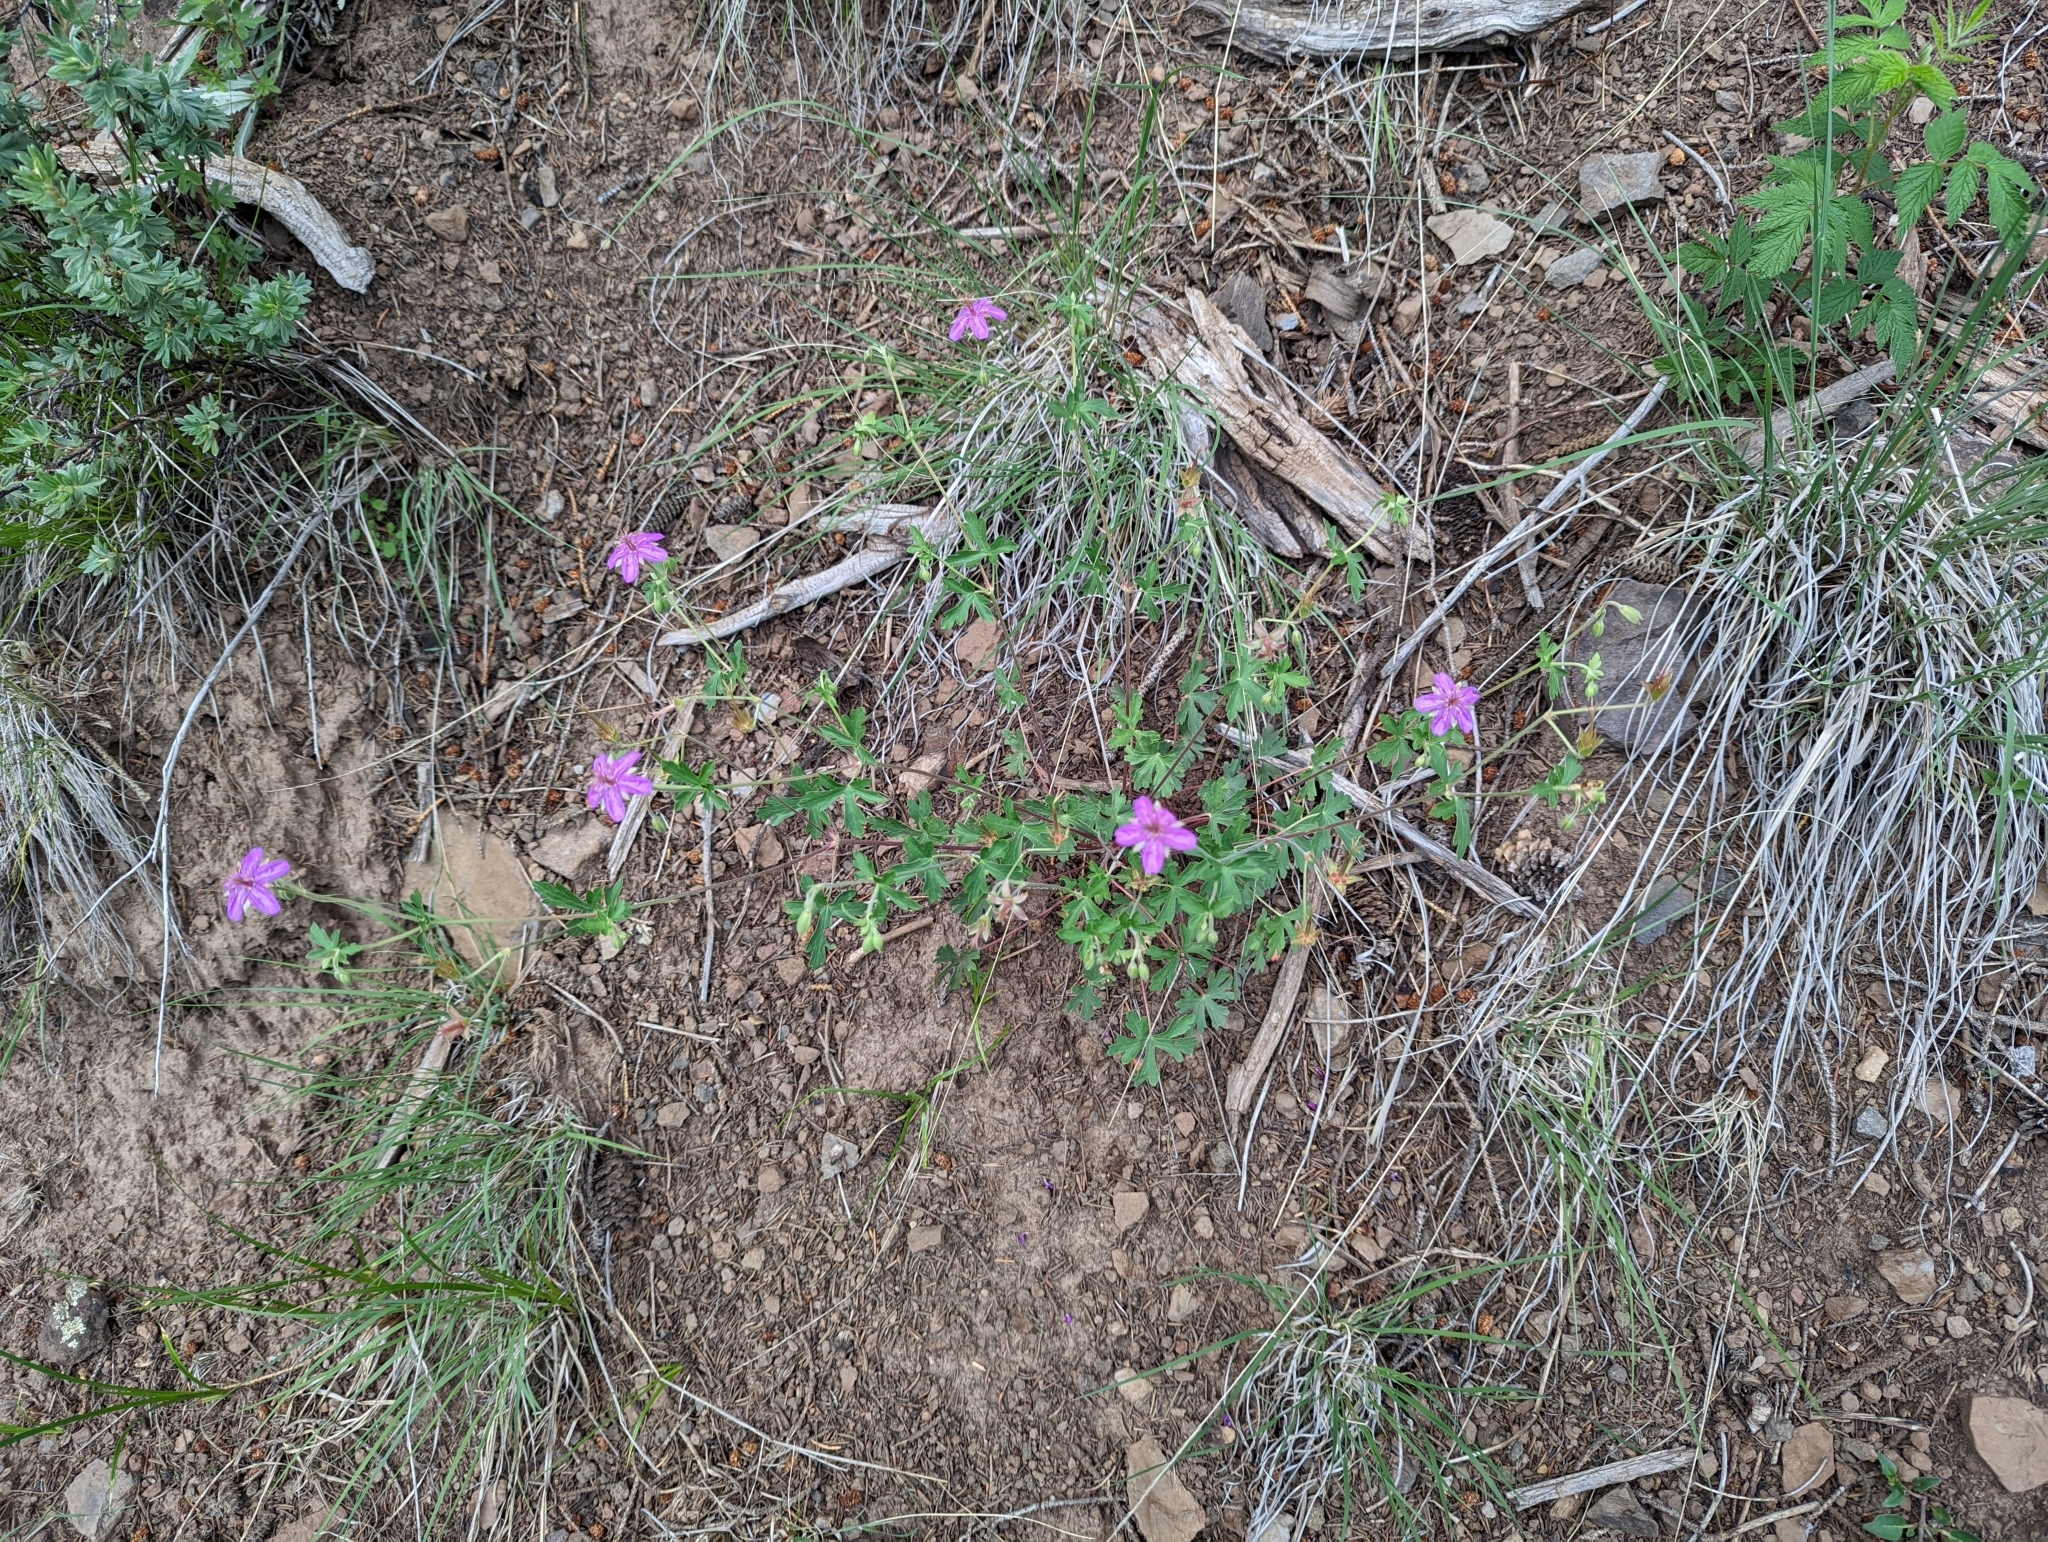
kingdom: Plantae
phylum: Tracheophyta
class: Magnoliopsida
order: Geraniales
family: Geraniaceae
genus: Geranium
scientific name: Geranium caespitosum
